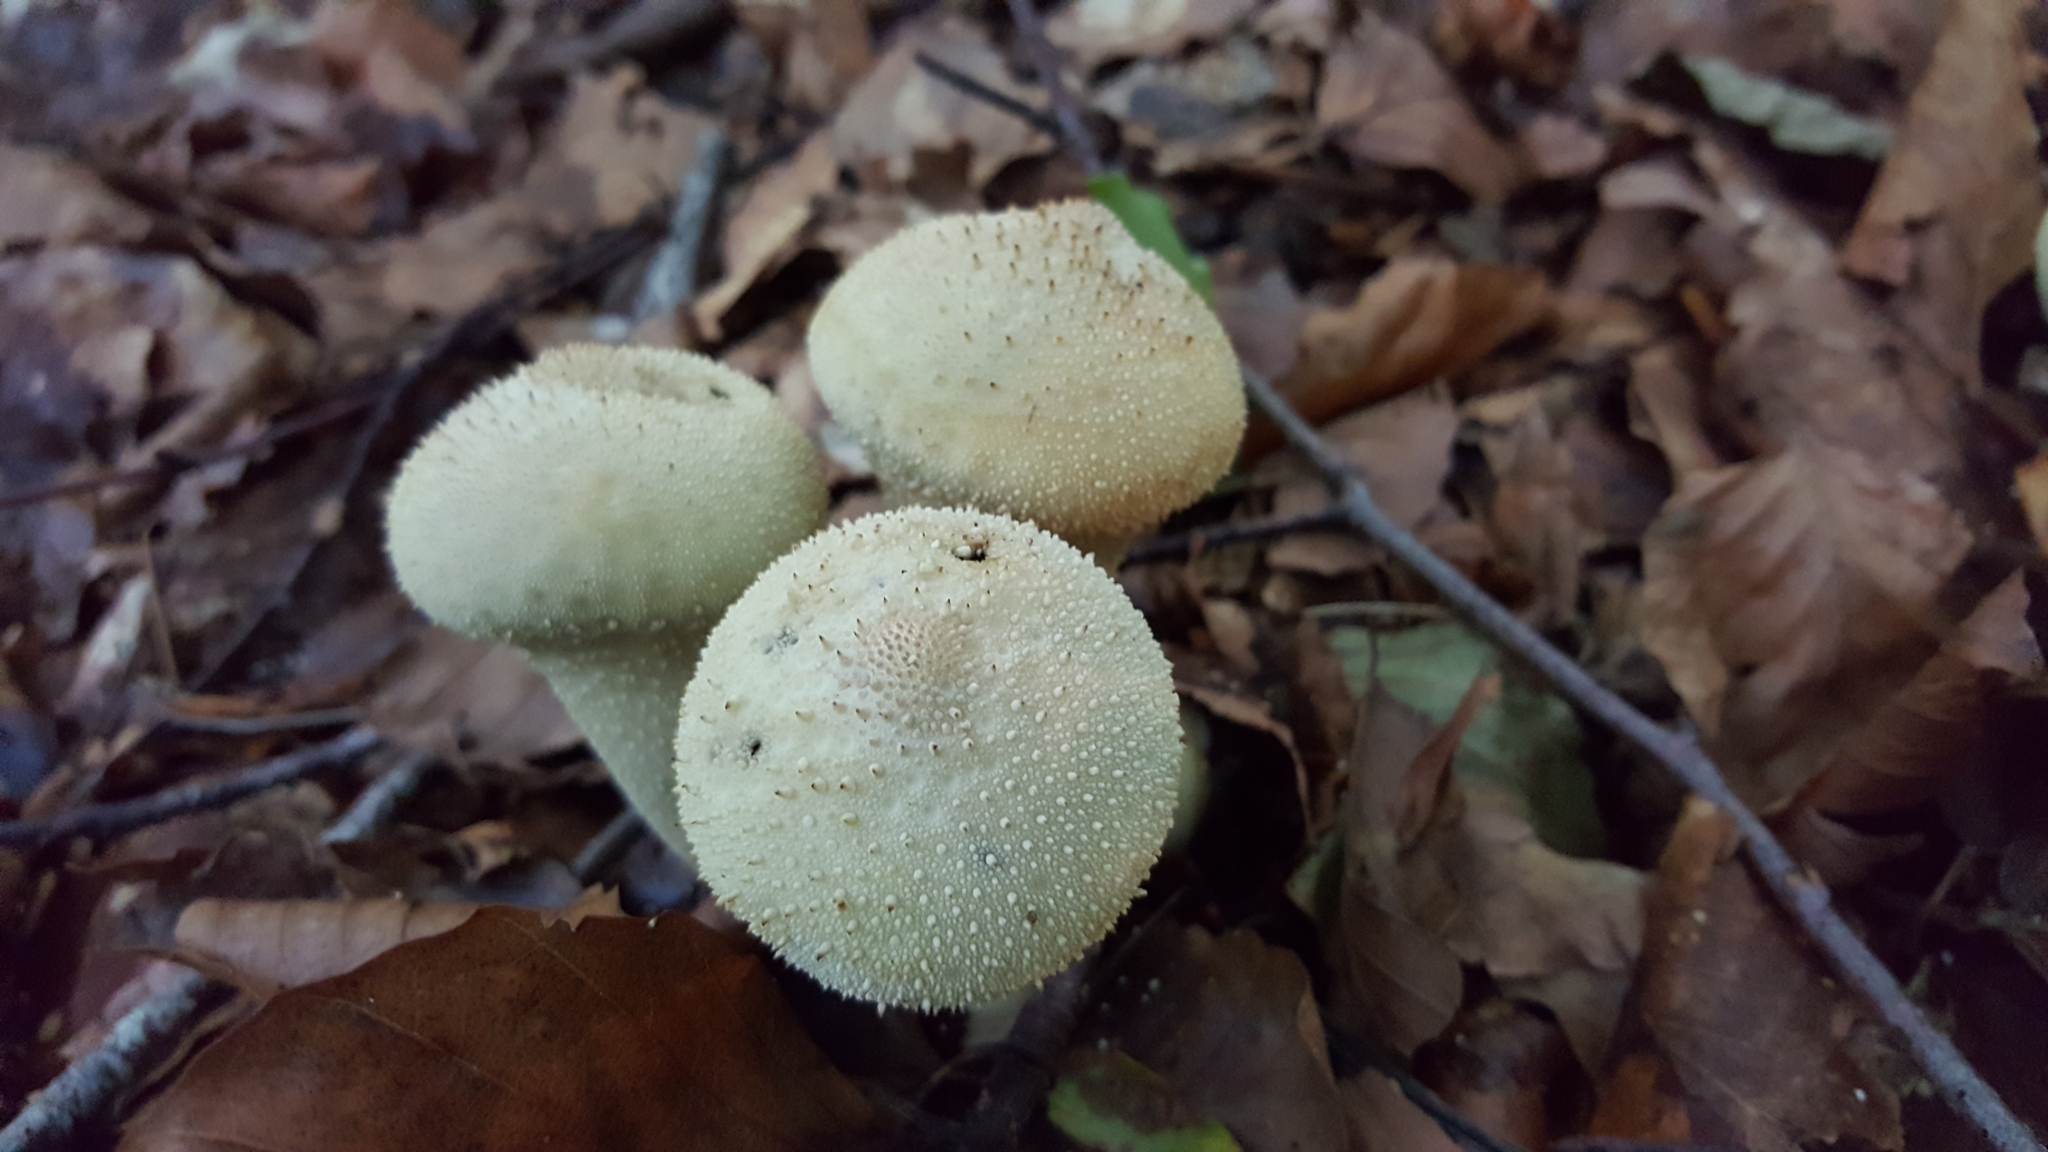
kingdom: Fungi
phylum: Basidiomycota
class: Agaricomycetes
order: Agaricales
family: Lycoperdaceae
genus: Lycoperdon
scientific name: Lycoperdon perlatum
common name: Common puffball
